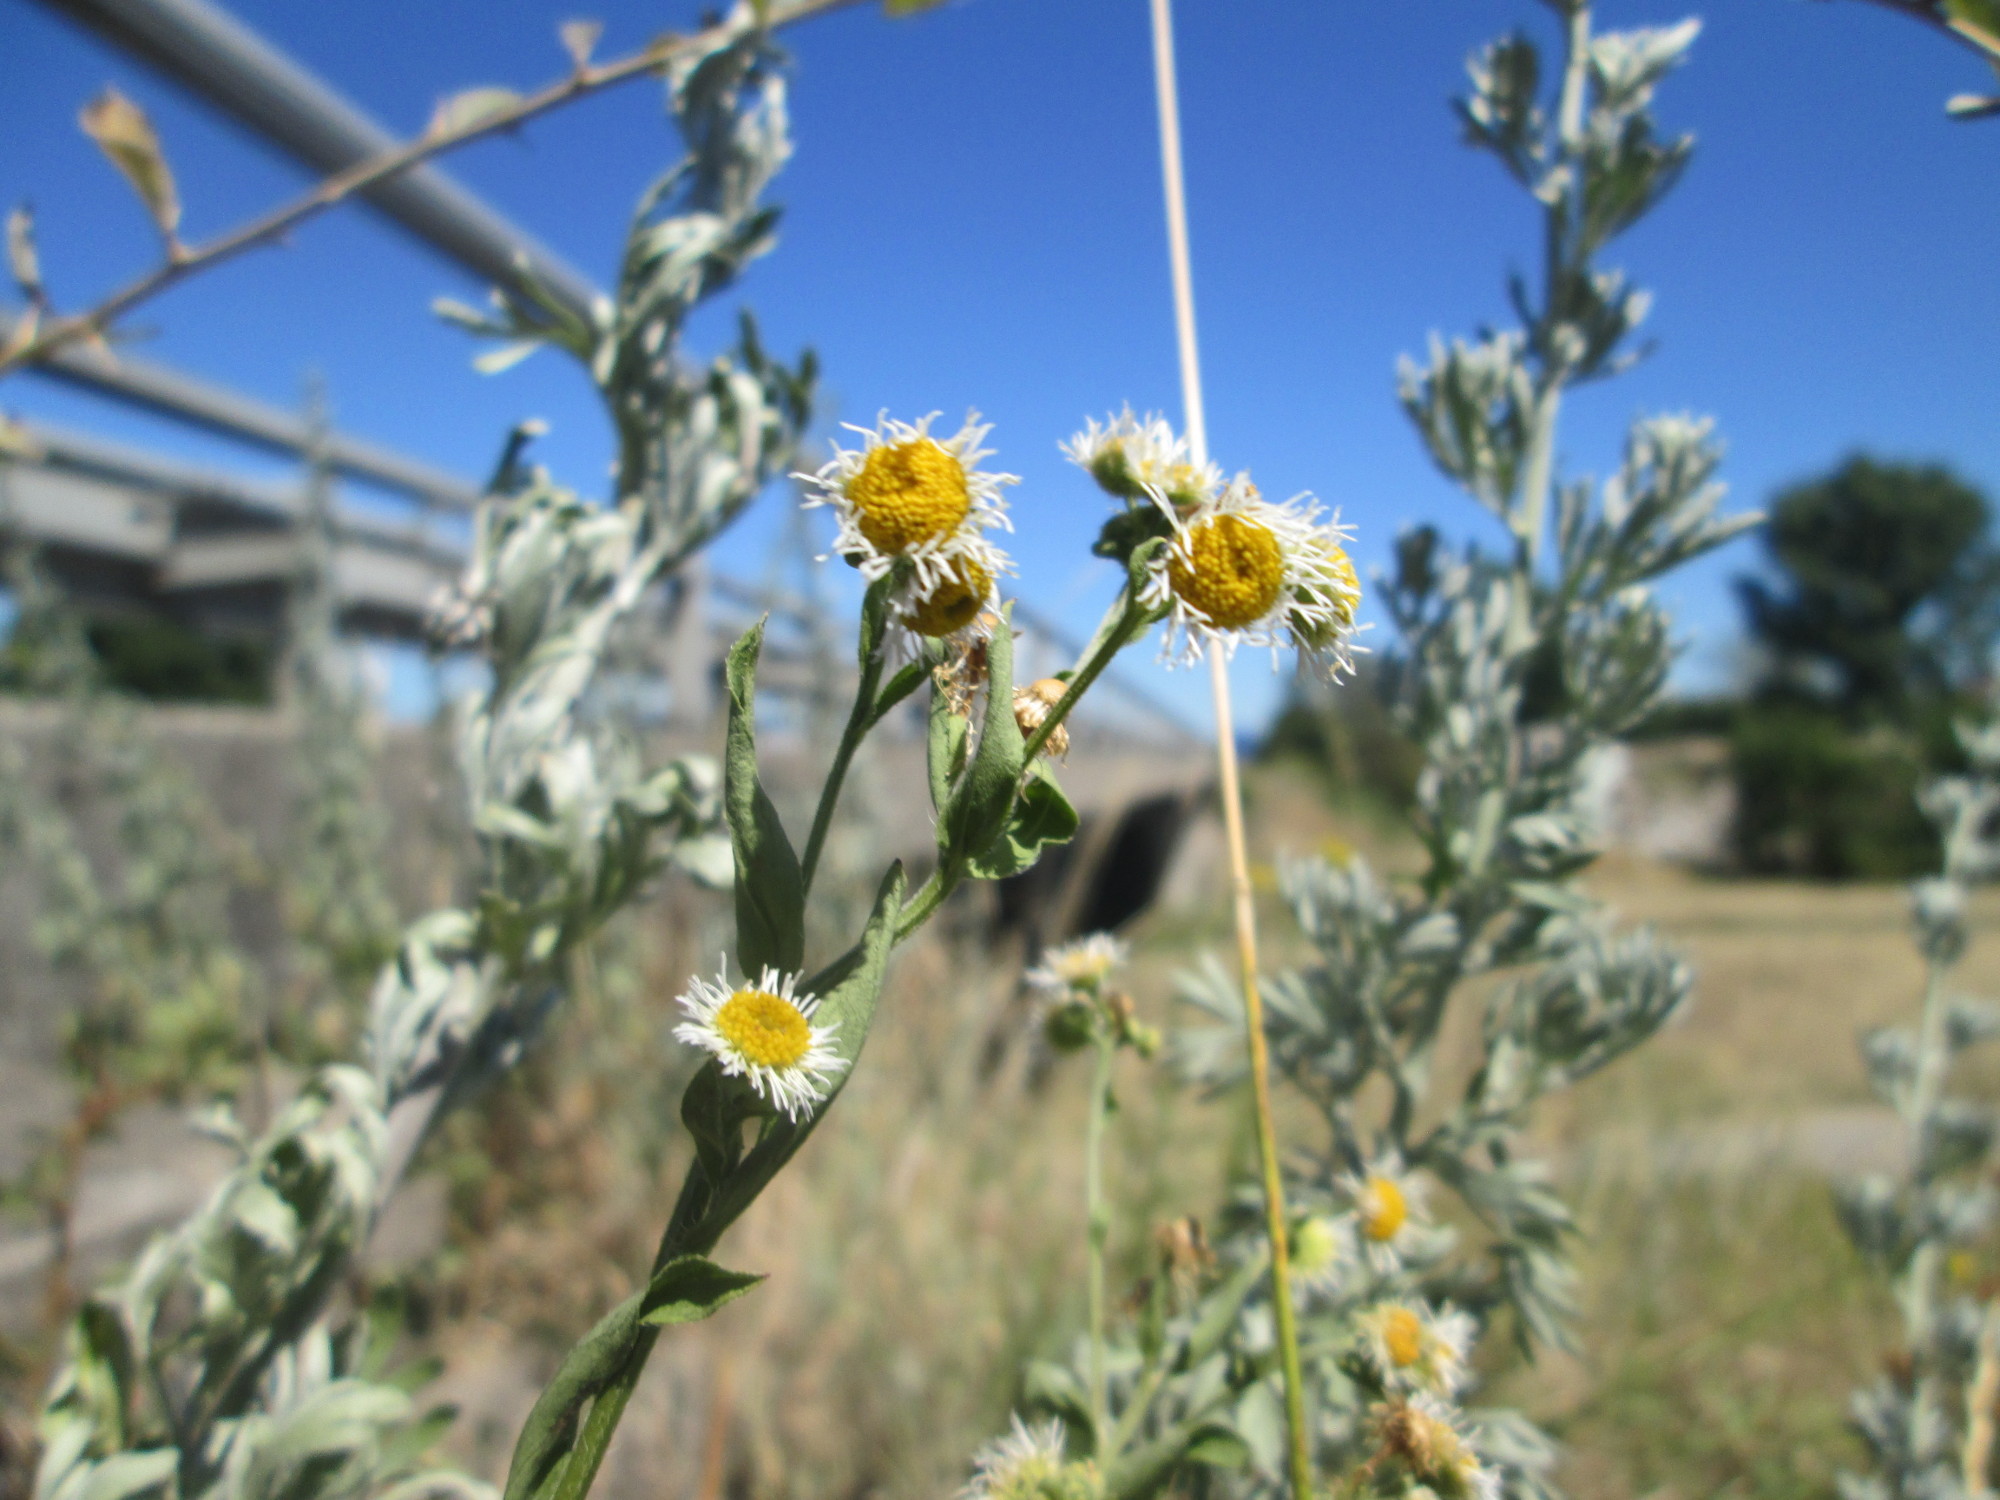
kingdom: Plantae
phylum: Tracheophyta
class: Magnoliopsida
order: Asterales
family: Asteraceae
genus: Erigeron
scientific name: Erigeron annuus
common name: Tall fleabane
